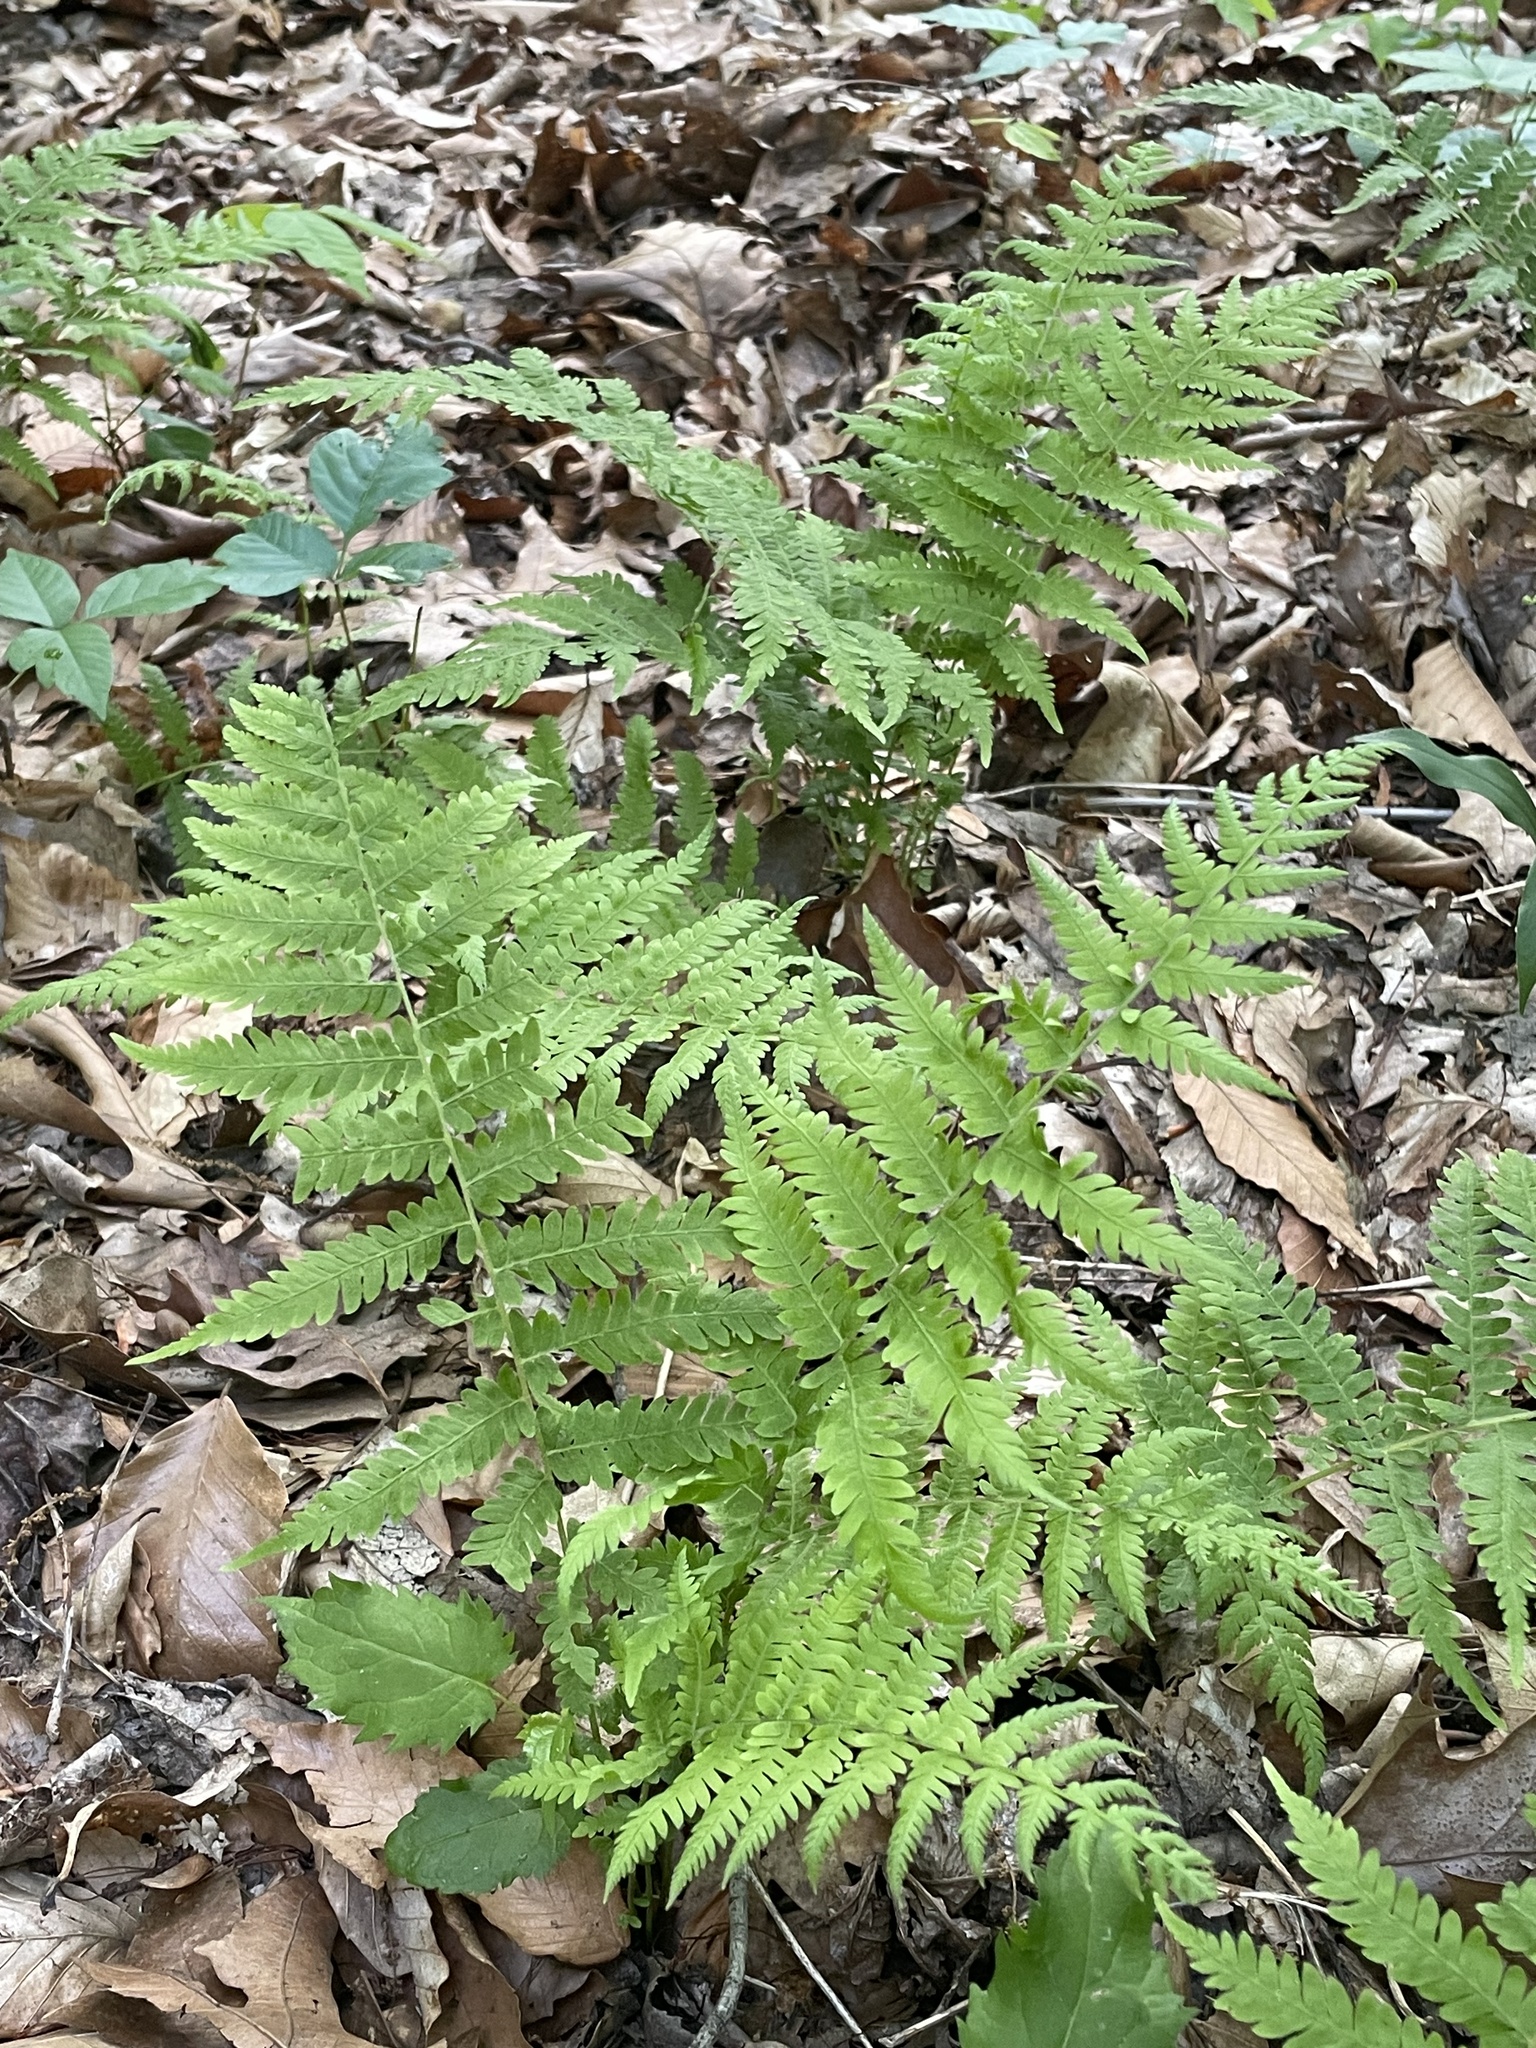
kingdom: Plantae
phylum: Tracheophyta
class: Polypodiopsida
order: Polypodiales
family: Thelypteridaceae
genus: Amauropelta
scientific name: Amauropelta noveboracensis
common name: New york fern
